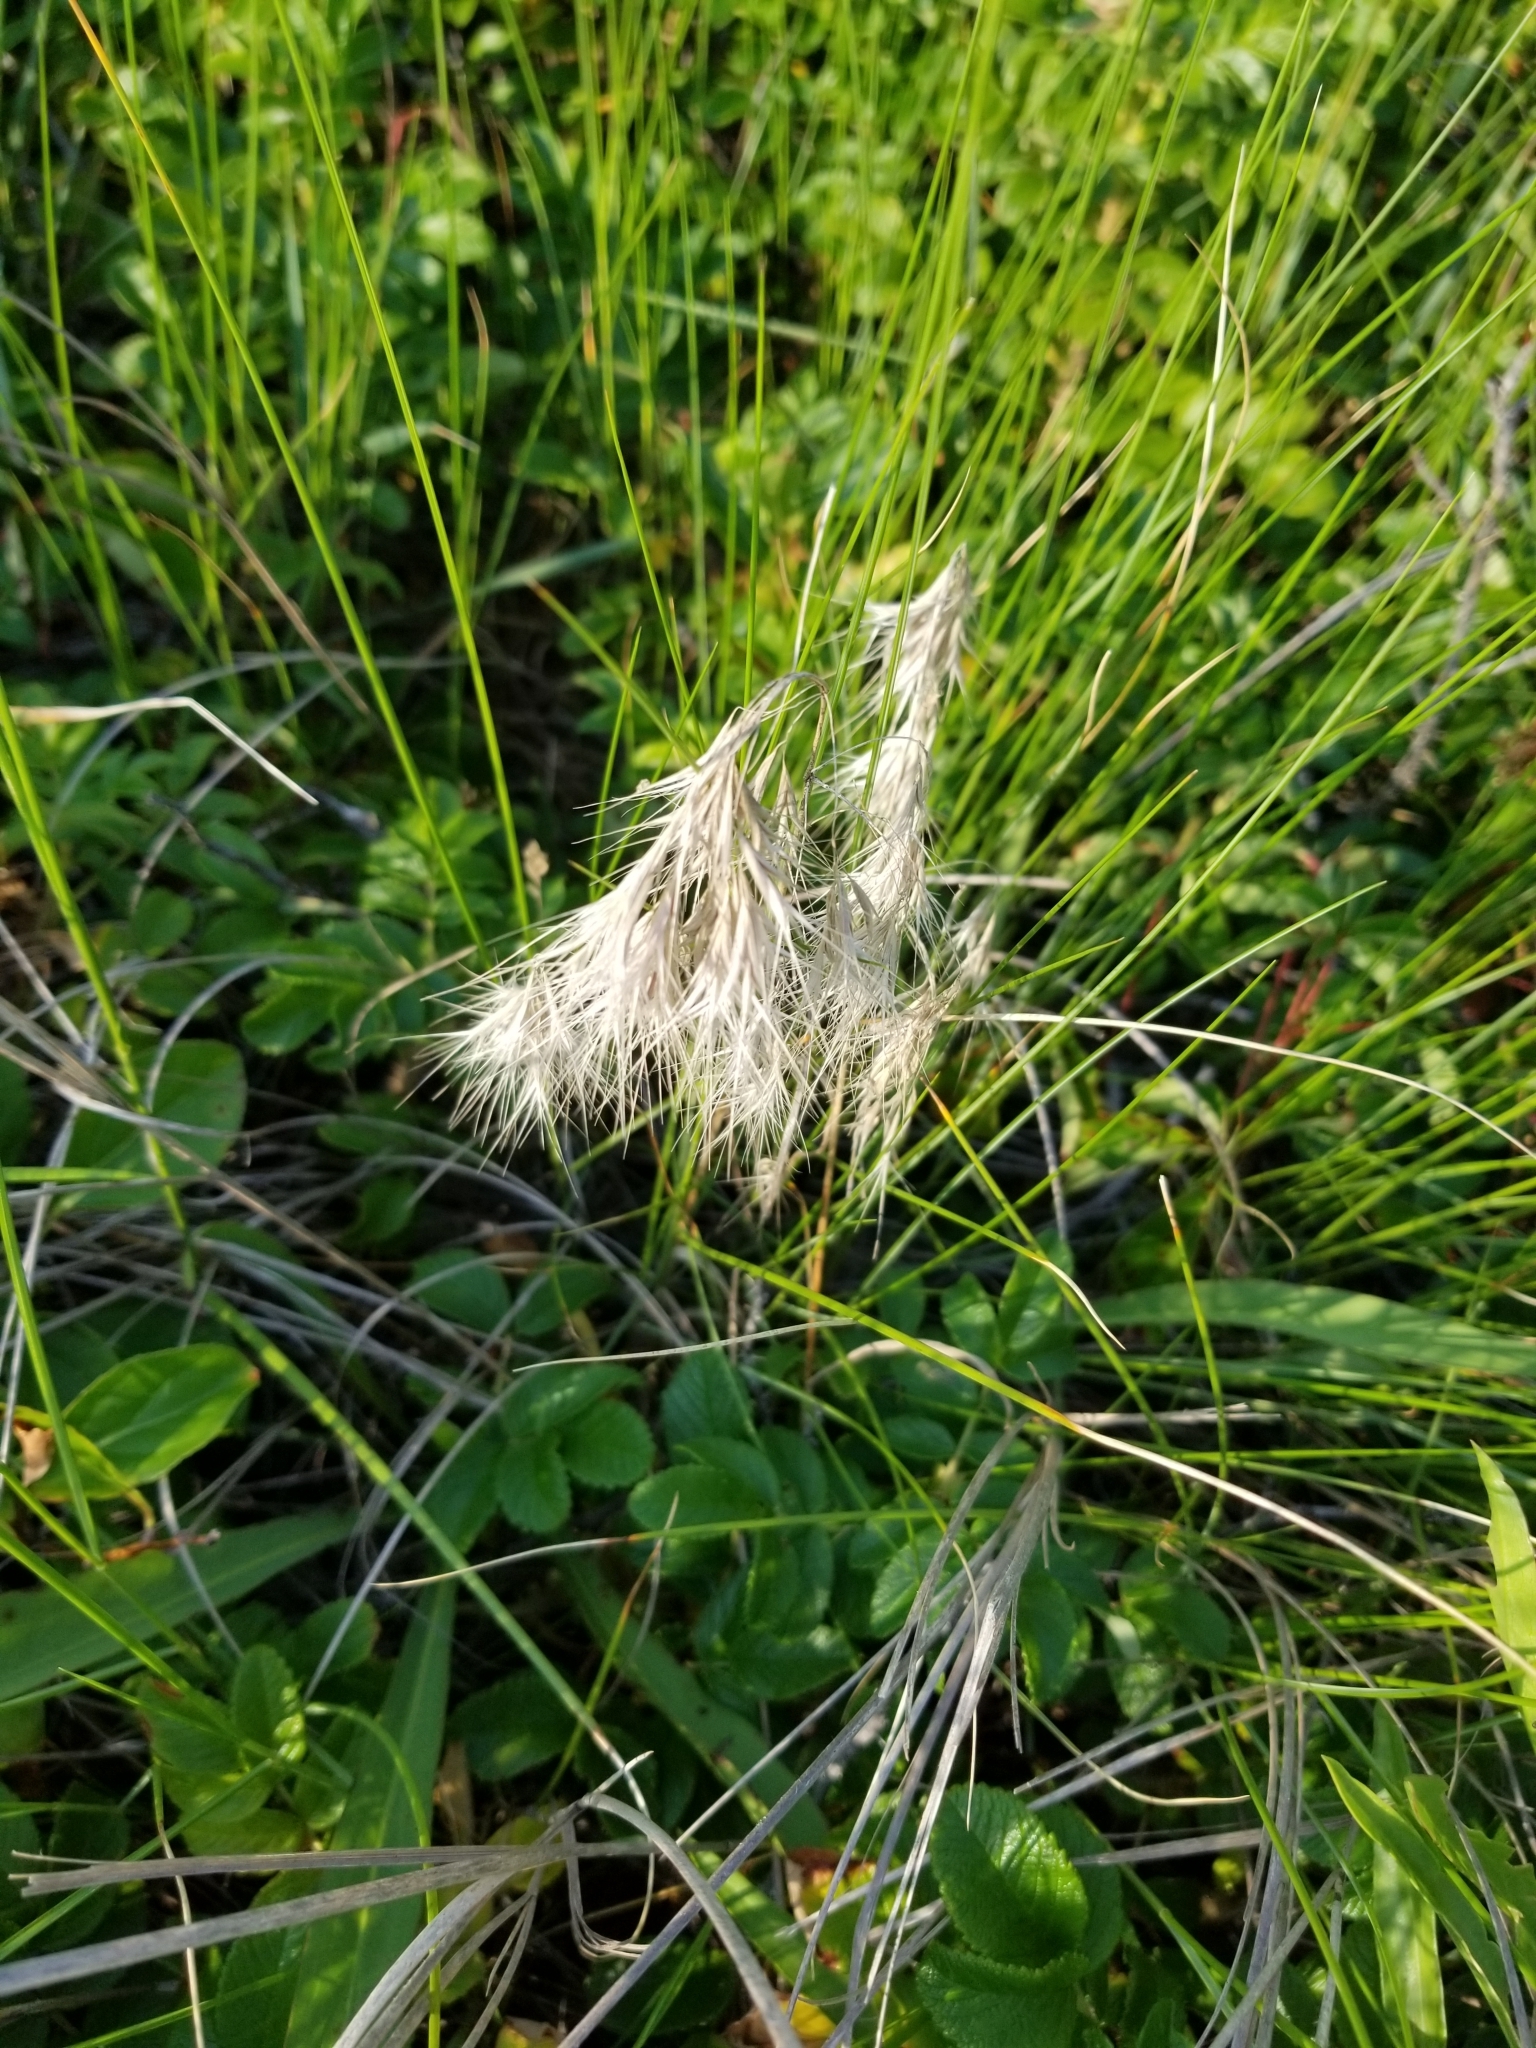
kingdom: Plantae
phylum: Tracheophyta
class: Liliopsida
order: Poales
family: Poaceae
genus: Bromus
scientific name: Bromus tectorum
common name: Cheatgrass
